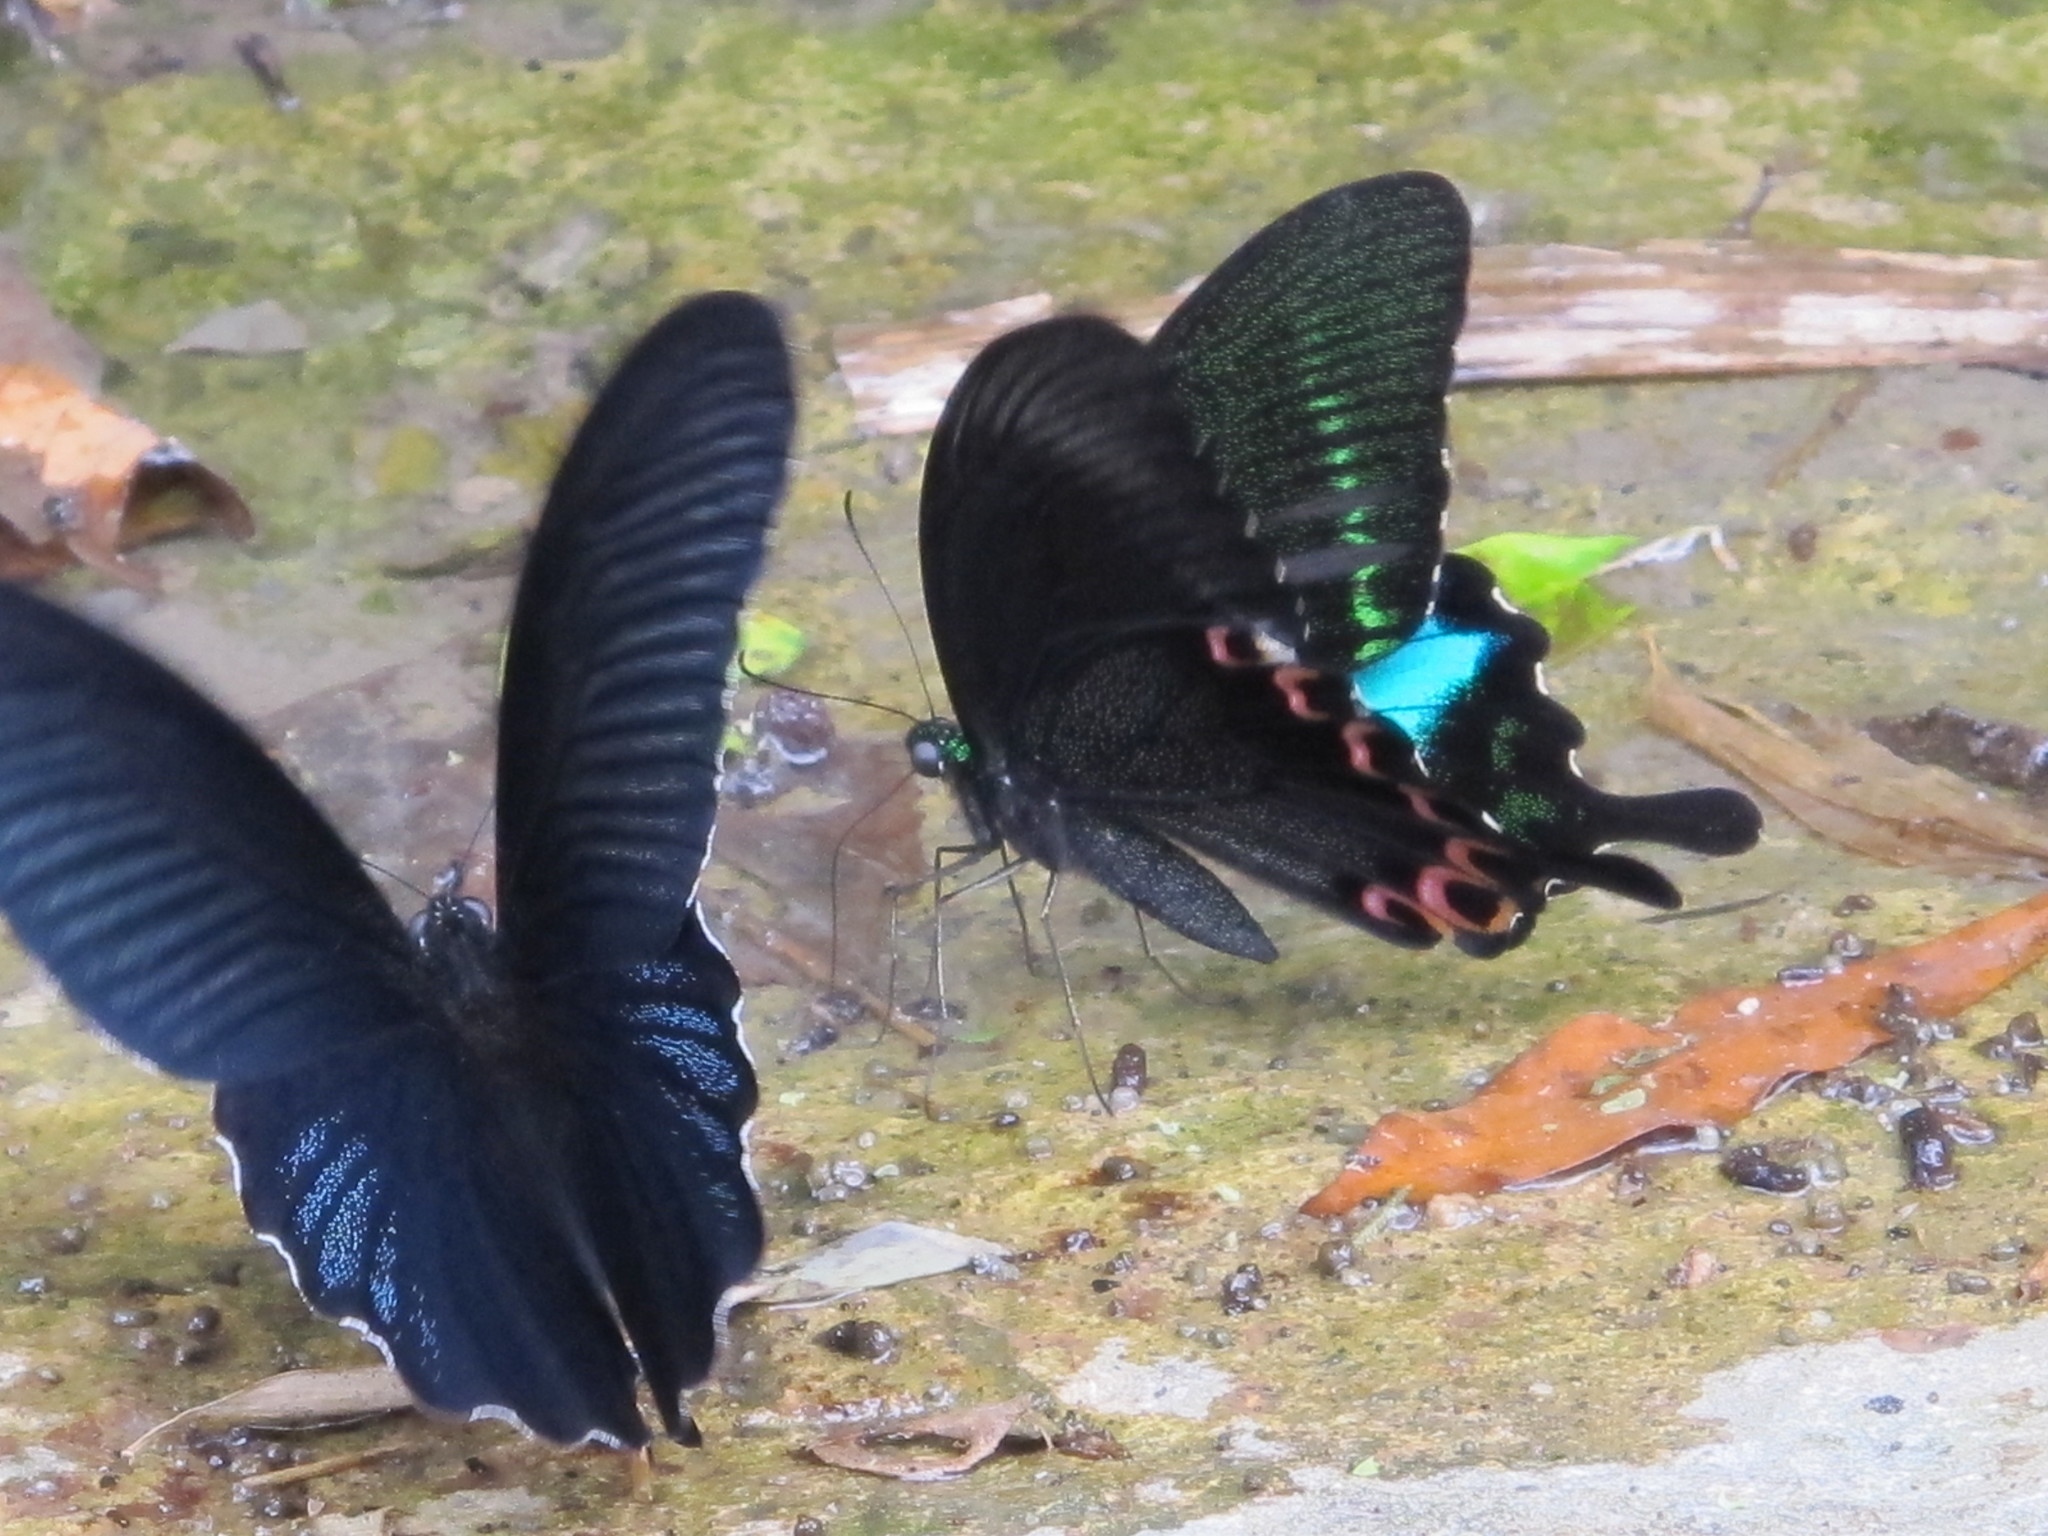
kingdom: Animalia
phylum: Arthropoda
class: Insecta
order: Lepidoptera
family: Papilionidae
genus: Papilio
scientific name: Papilio protenor
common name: Spangle
